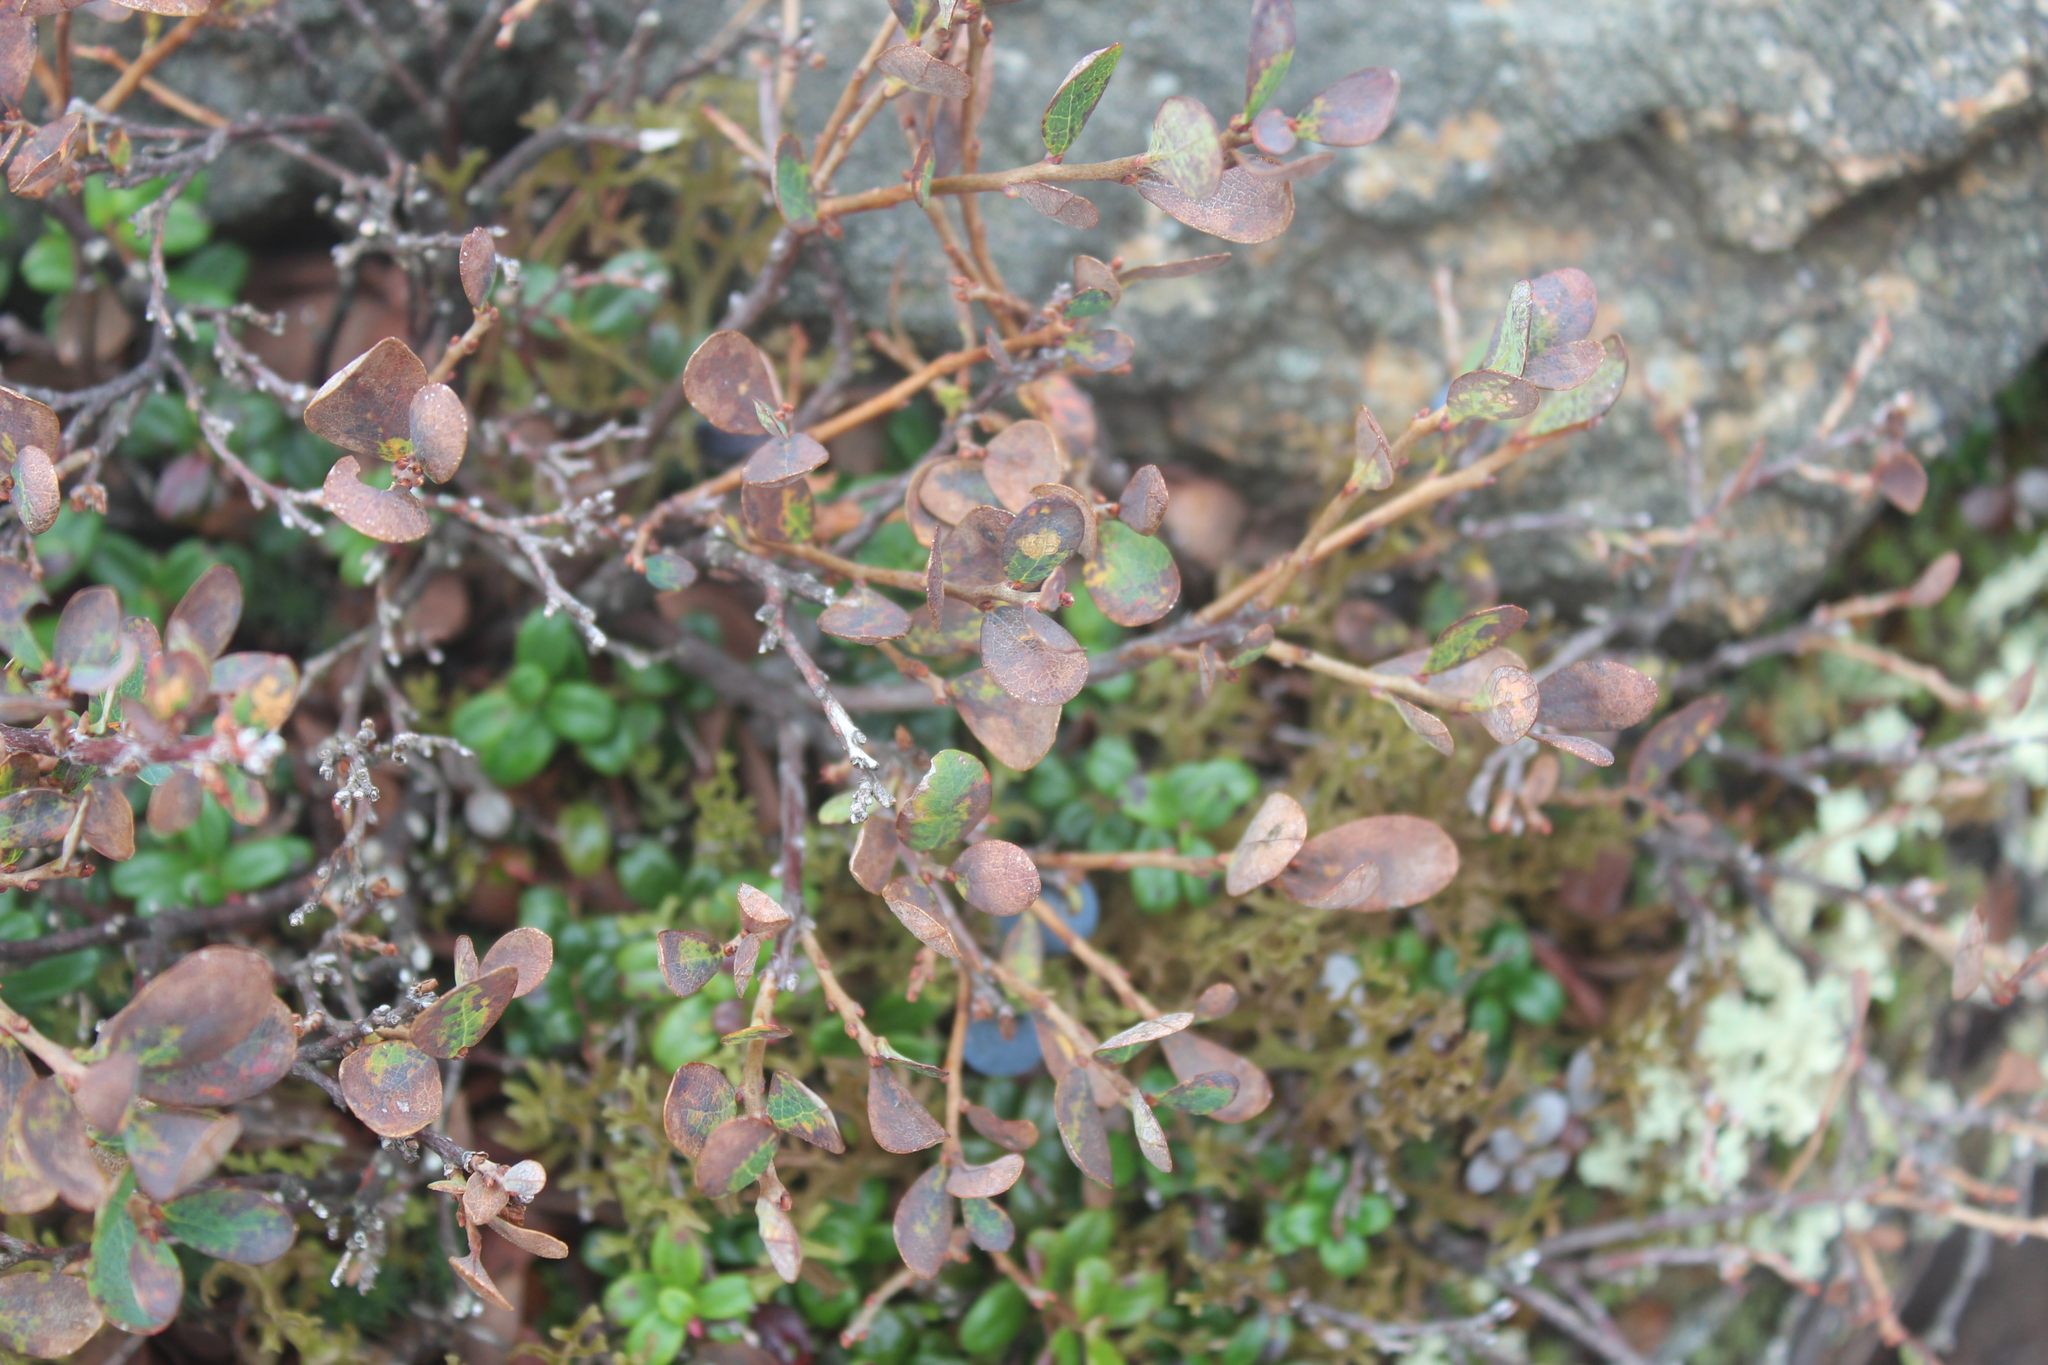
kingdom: Plantae
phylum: Tracheophyta
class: Magnoliopsida
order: Ericales
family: Ericaceae
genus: Vaccinium
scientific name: Vaccinium uliginosum
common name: Bog bilberry
